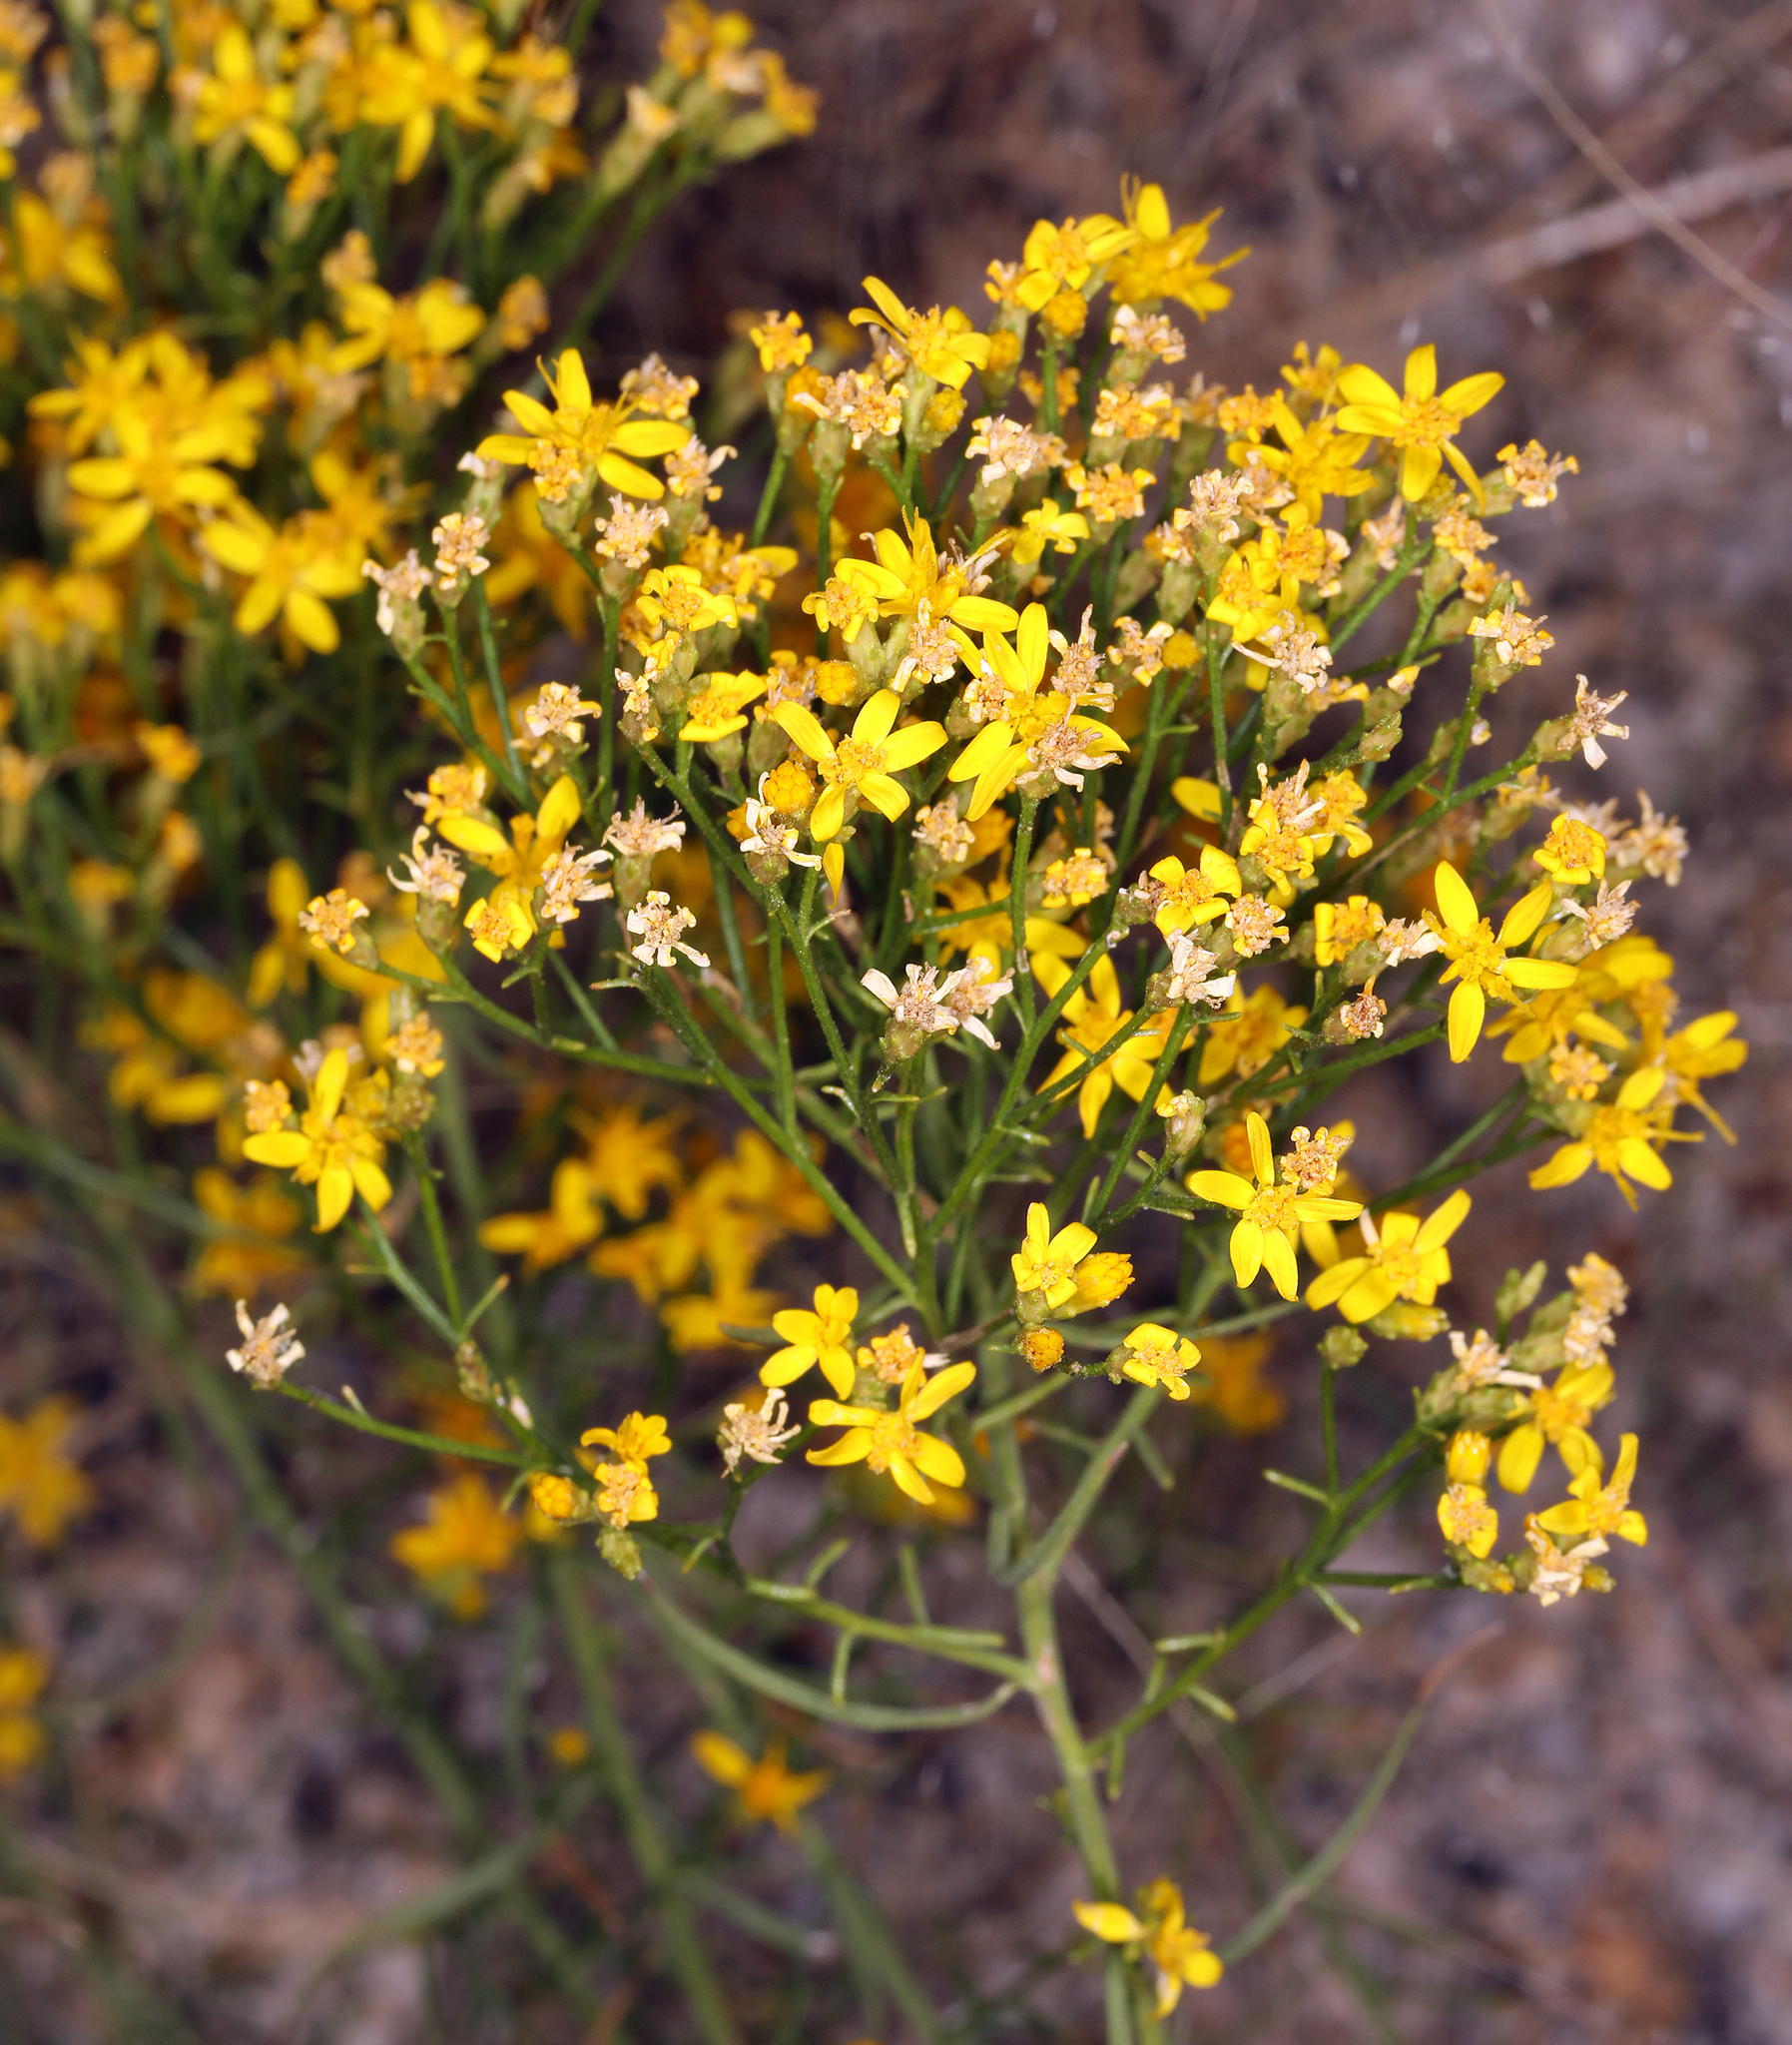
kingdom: Plantae
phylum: Tracheophyta
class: Magnoliopsida
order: Asterales
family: Asteraceae
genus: Gutierrezia
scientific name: Gutierrezia sarothrae
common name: Broom snakeweed
